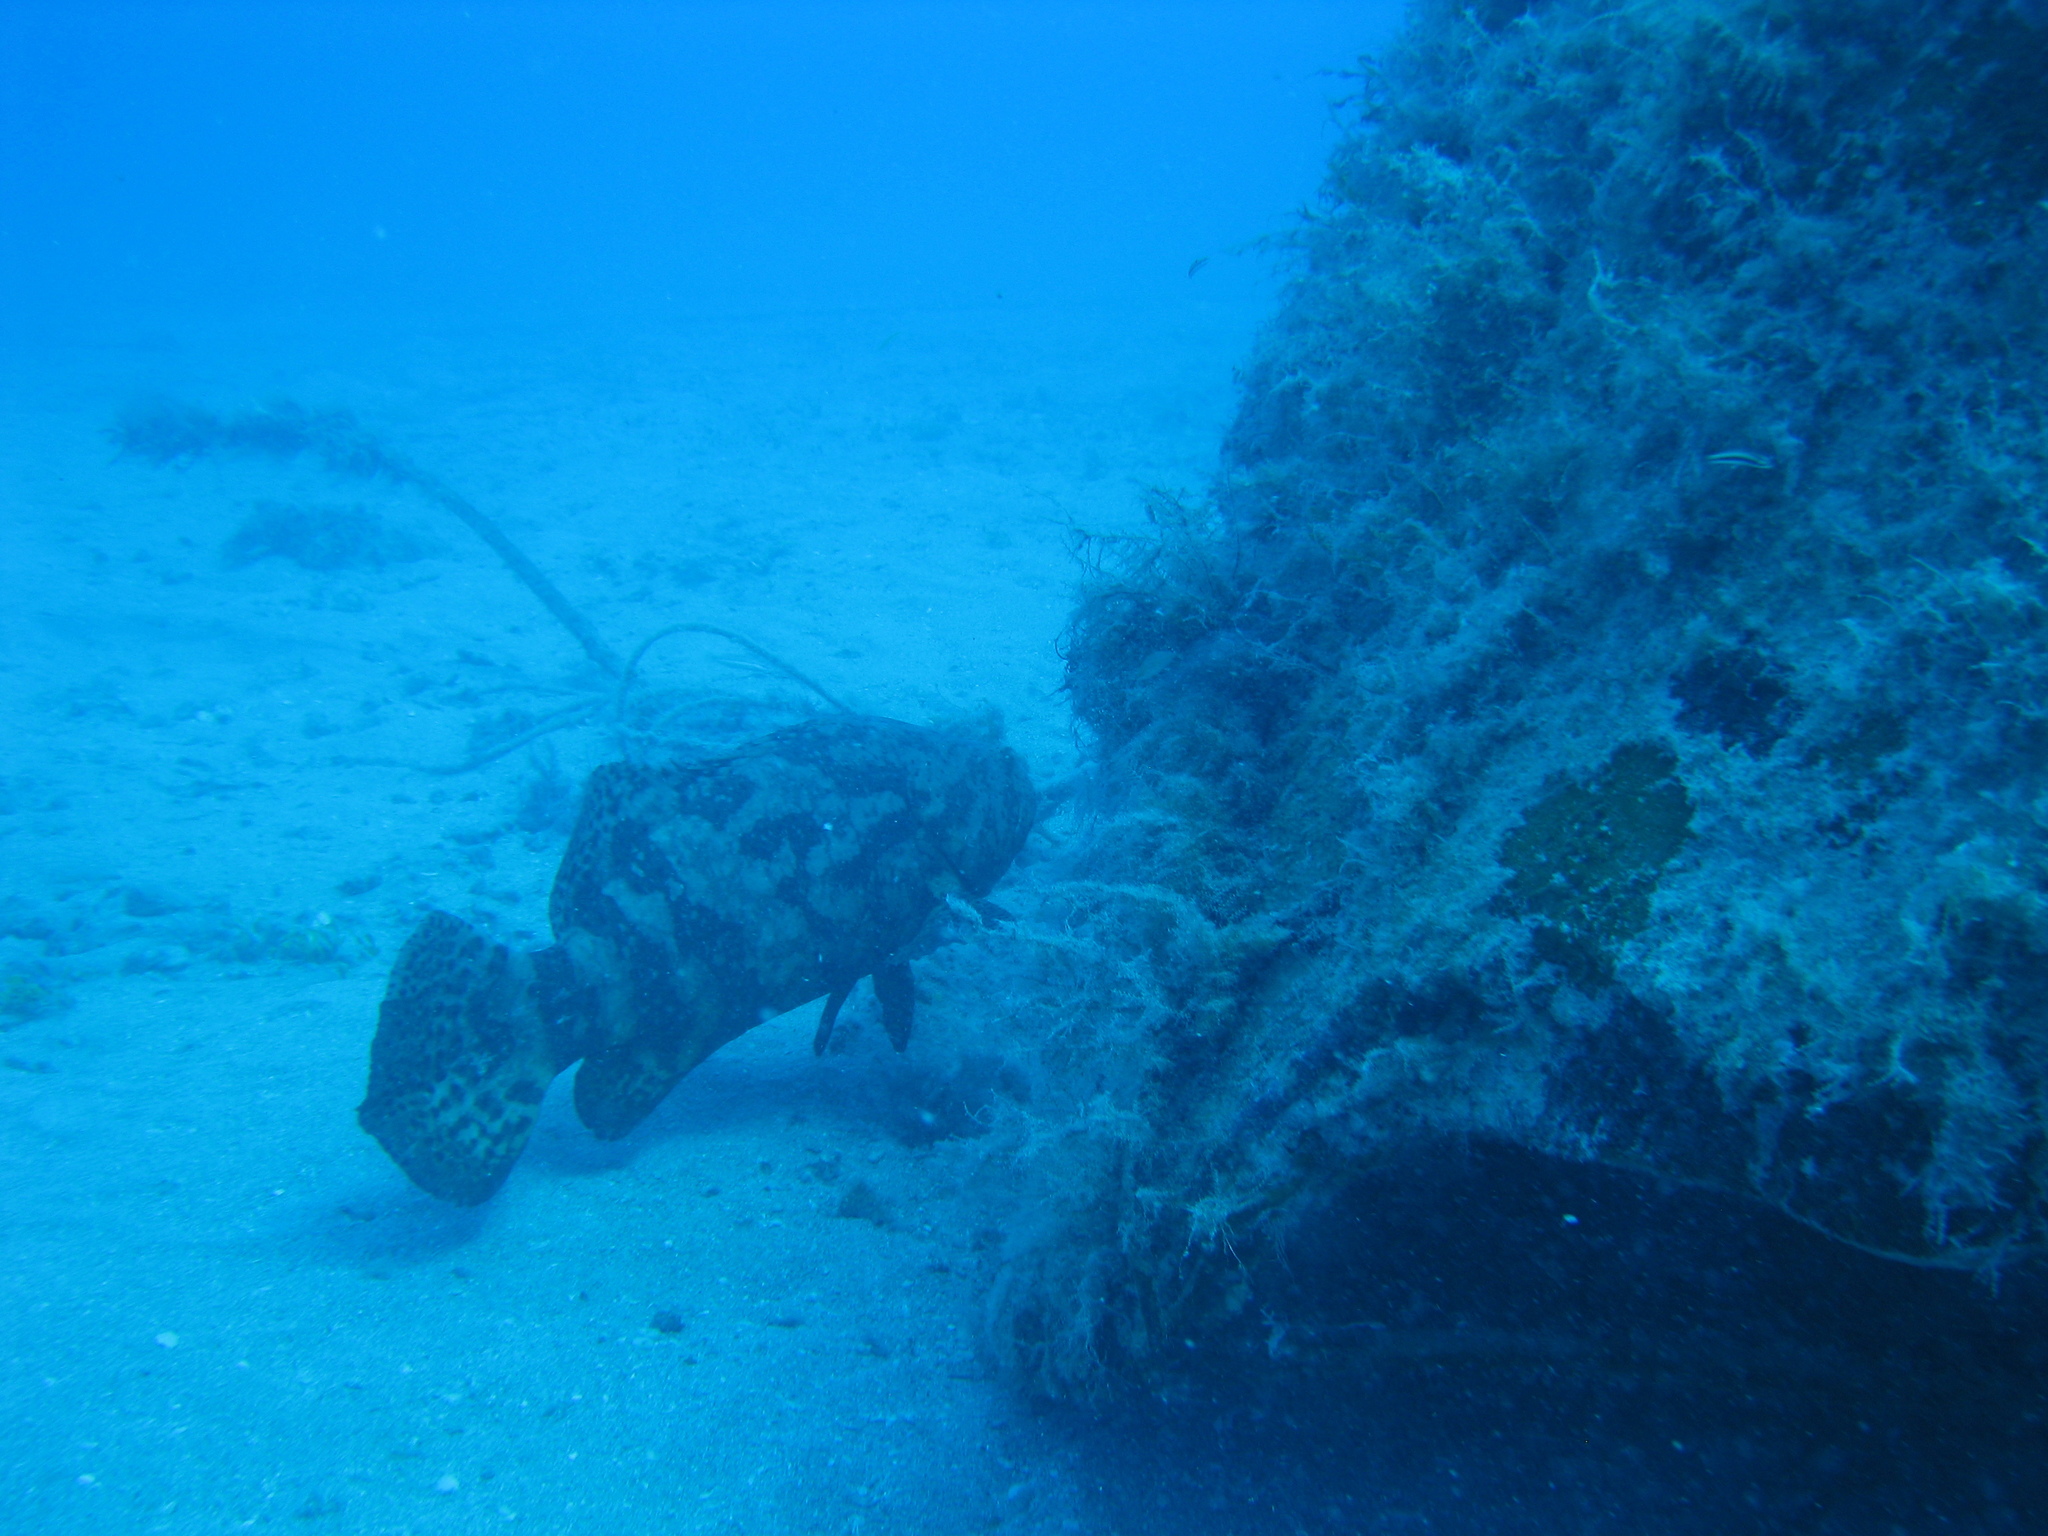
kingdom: Animalia
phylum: Chordata
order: Perciformes
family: Serranidae
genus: Epinephelus
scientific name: Epinephelus itajara
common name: Jewfish
